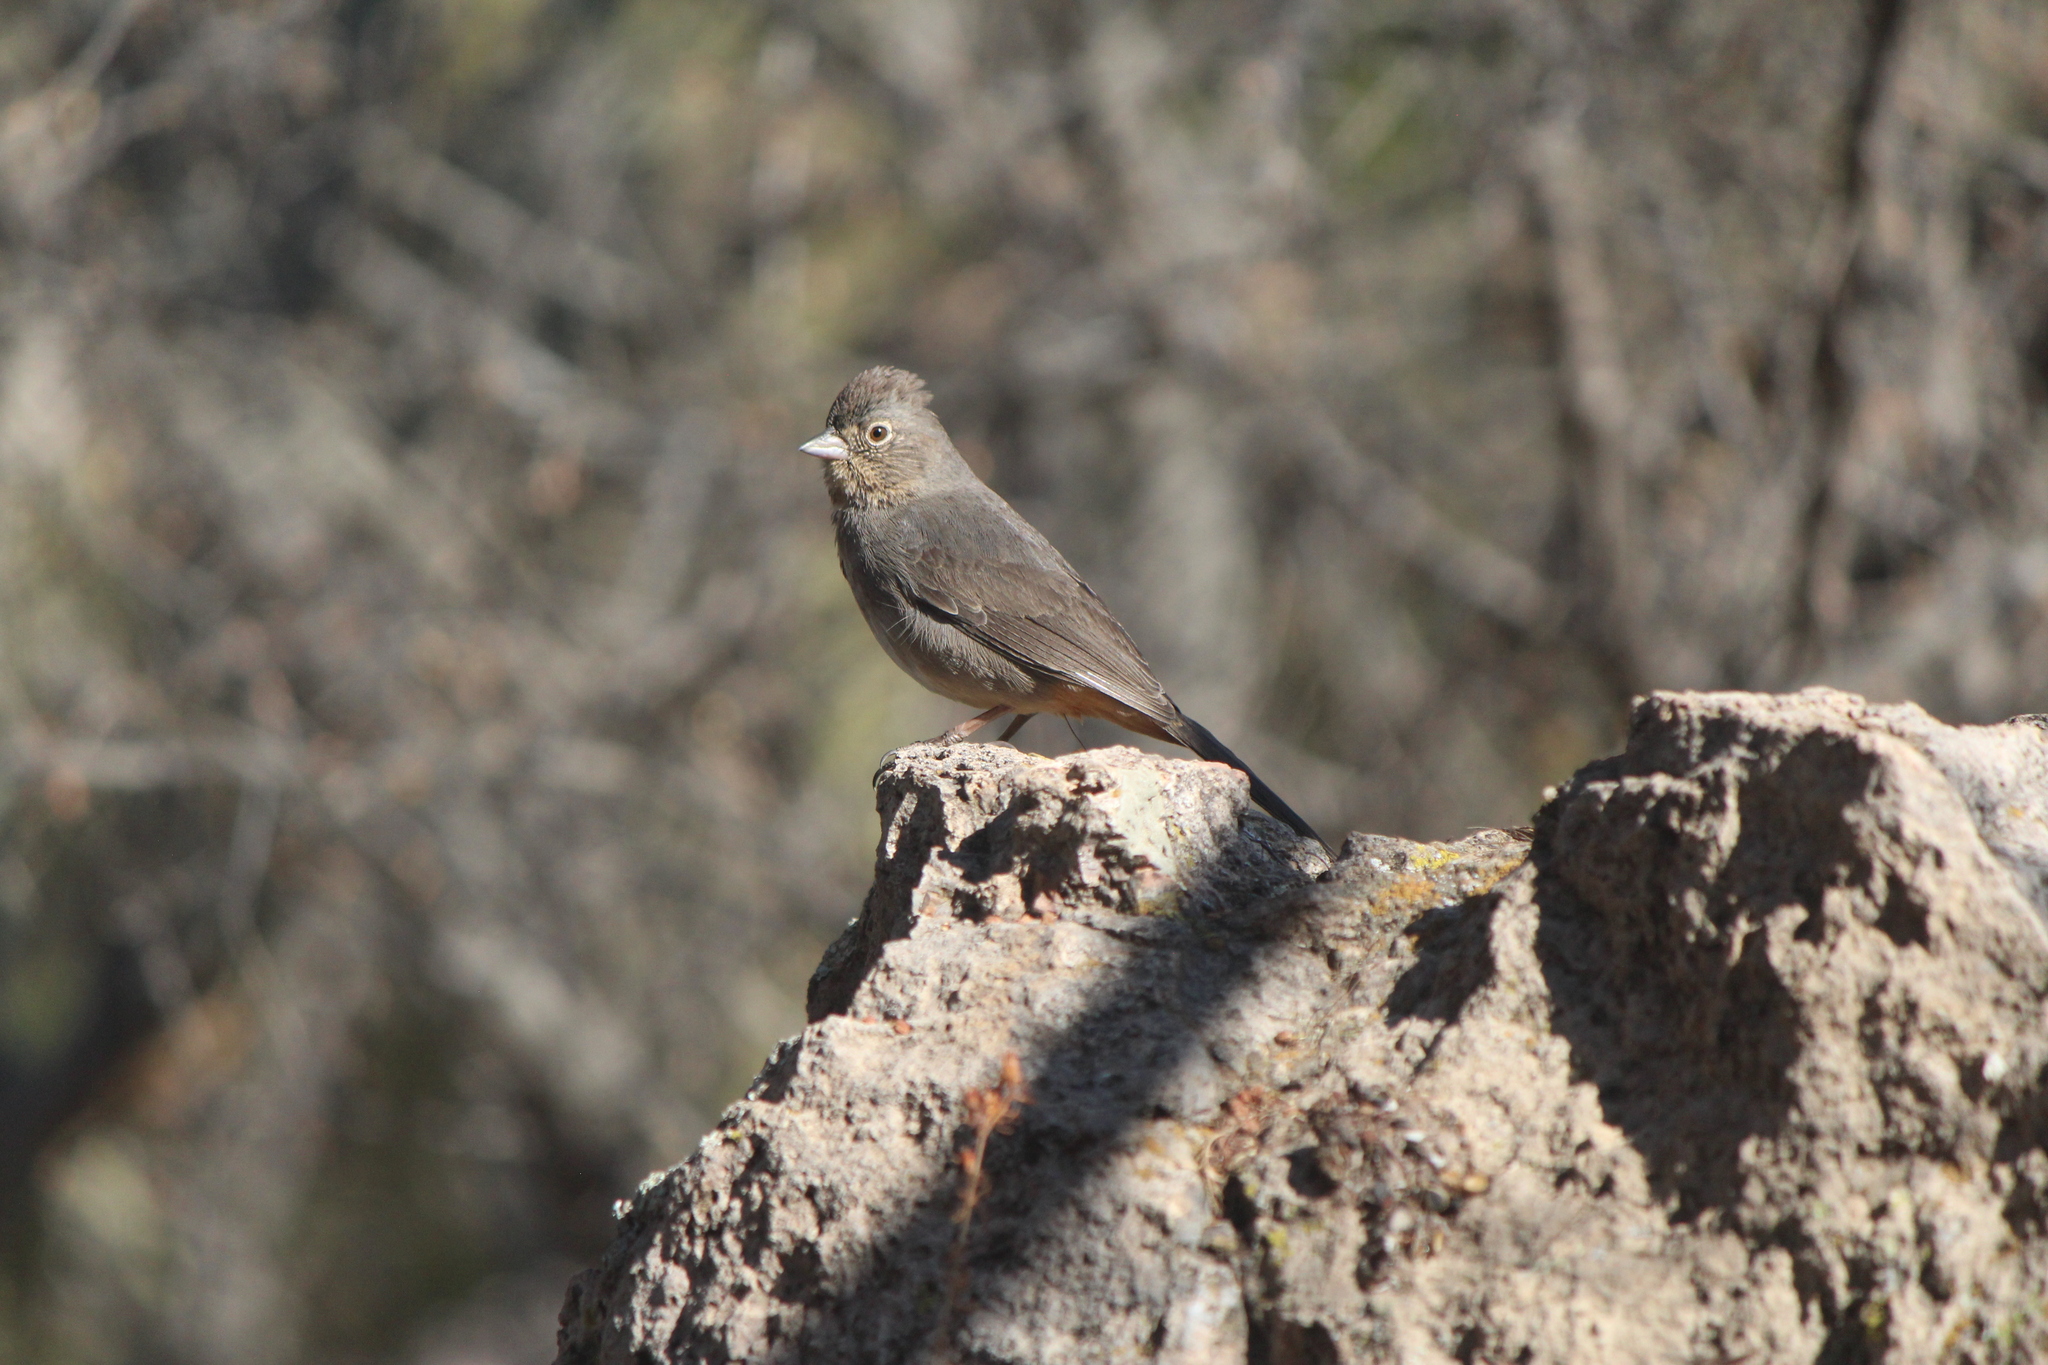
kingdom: Animalia
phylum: Chordata
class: Aves
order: Passeriformes
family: Passerellidae
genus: Melozone
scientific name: Melozone fusca
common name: Canyon towhee
